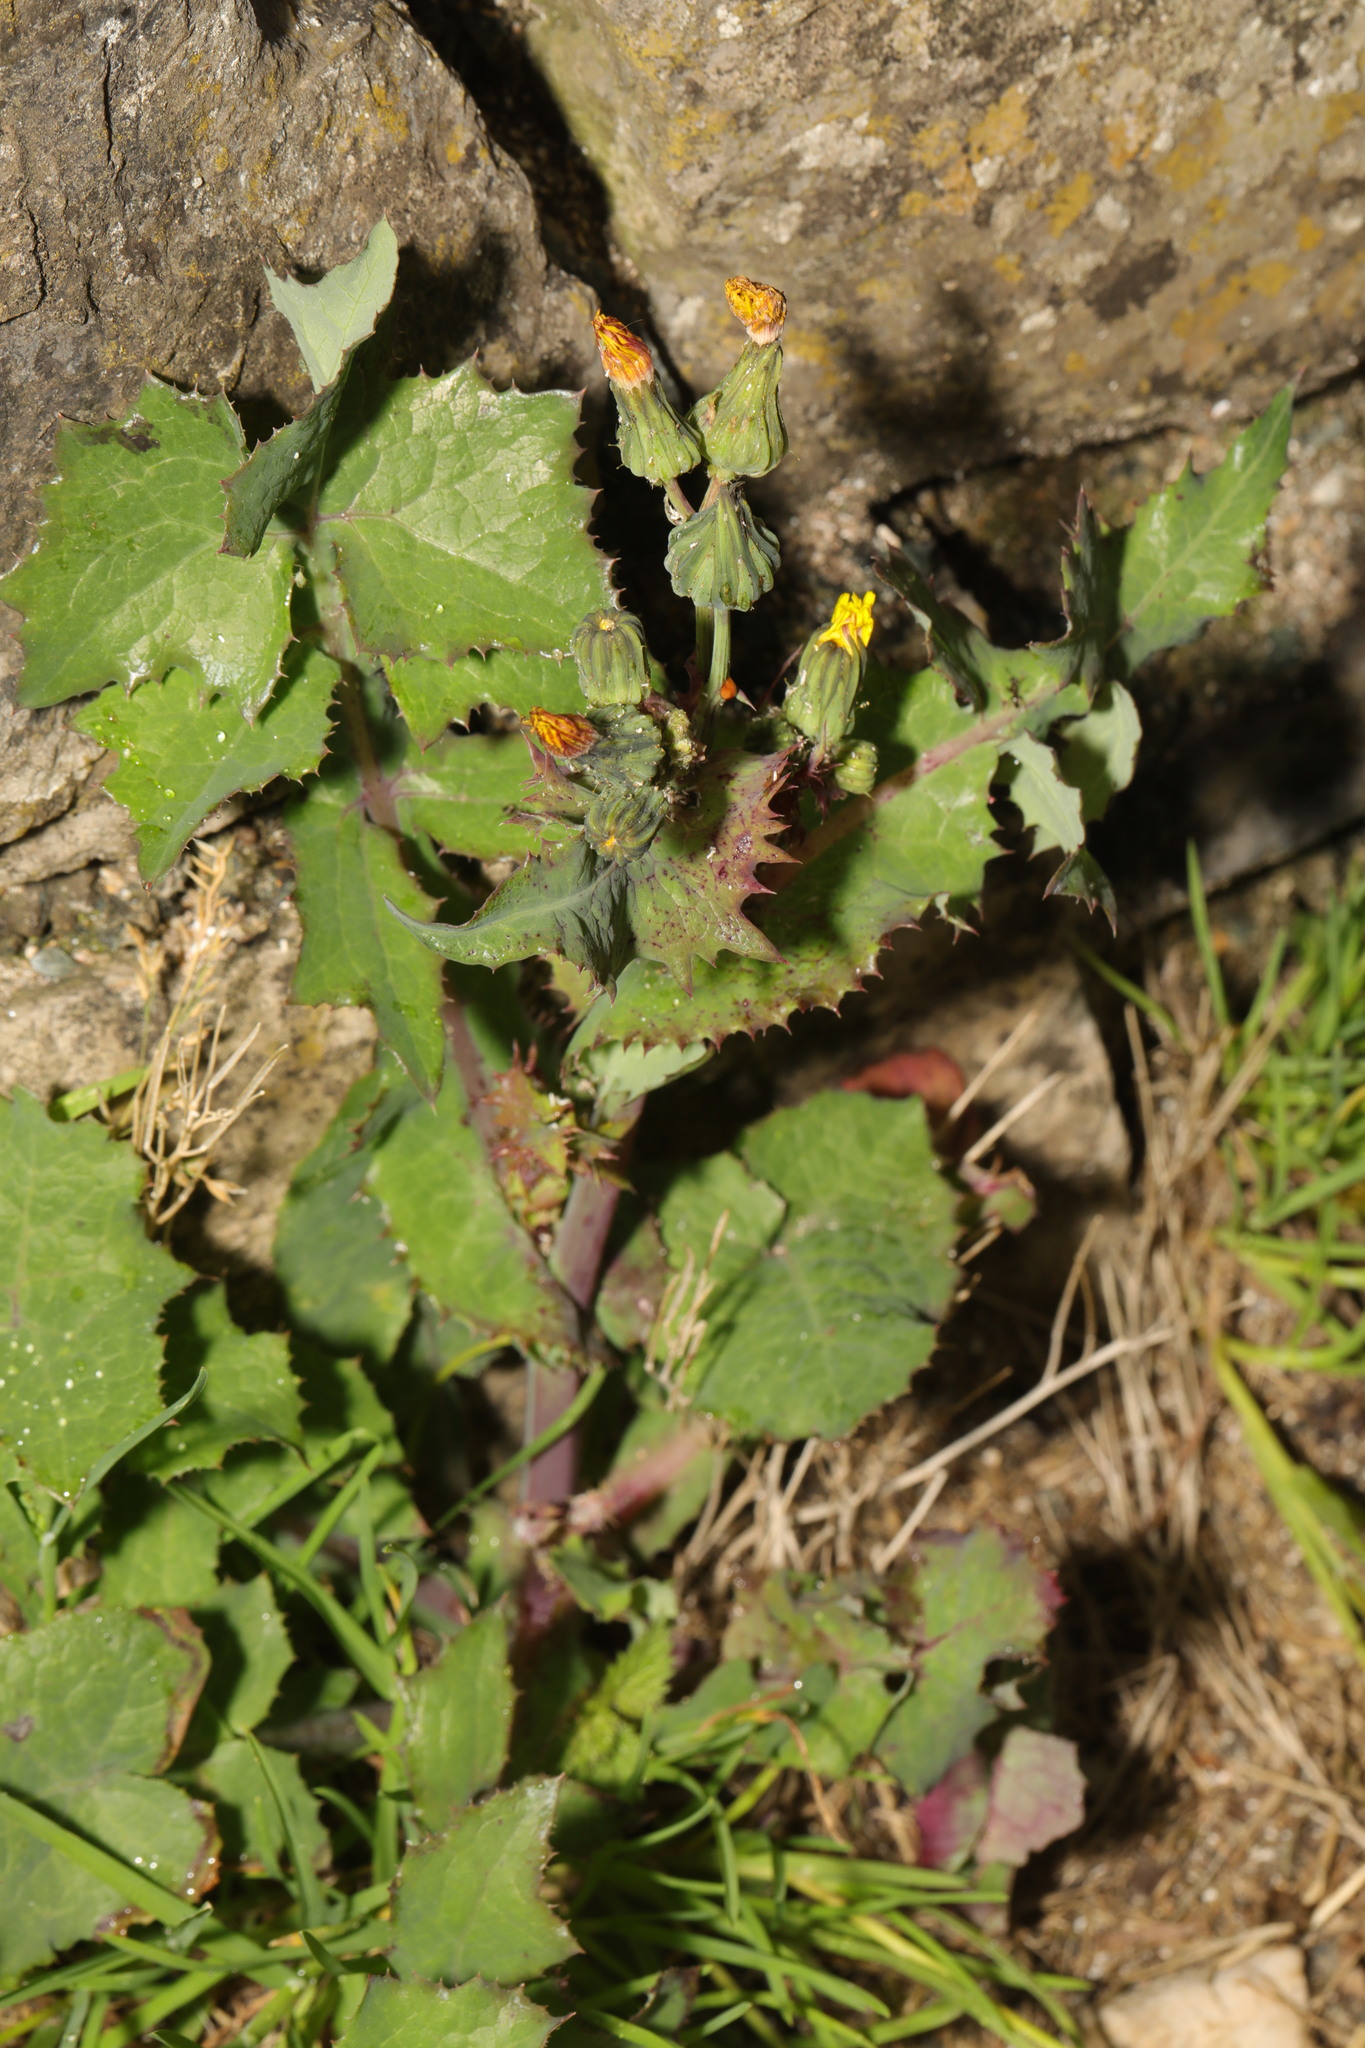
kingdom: Plantae
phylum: Tracheophyta
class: Magnoliopsida
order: Asterales
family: Asteraceae
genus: Sonchus
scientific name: Sonchus oleraceus
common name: Common sowthistle
